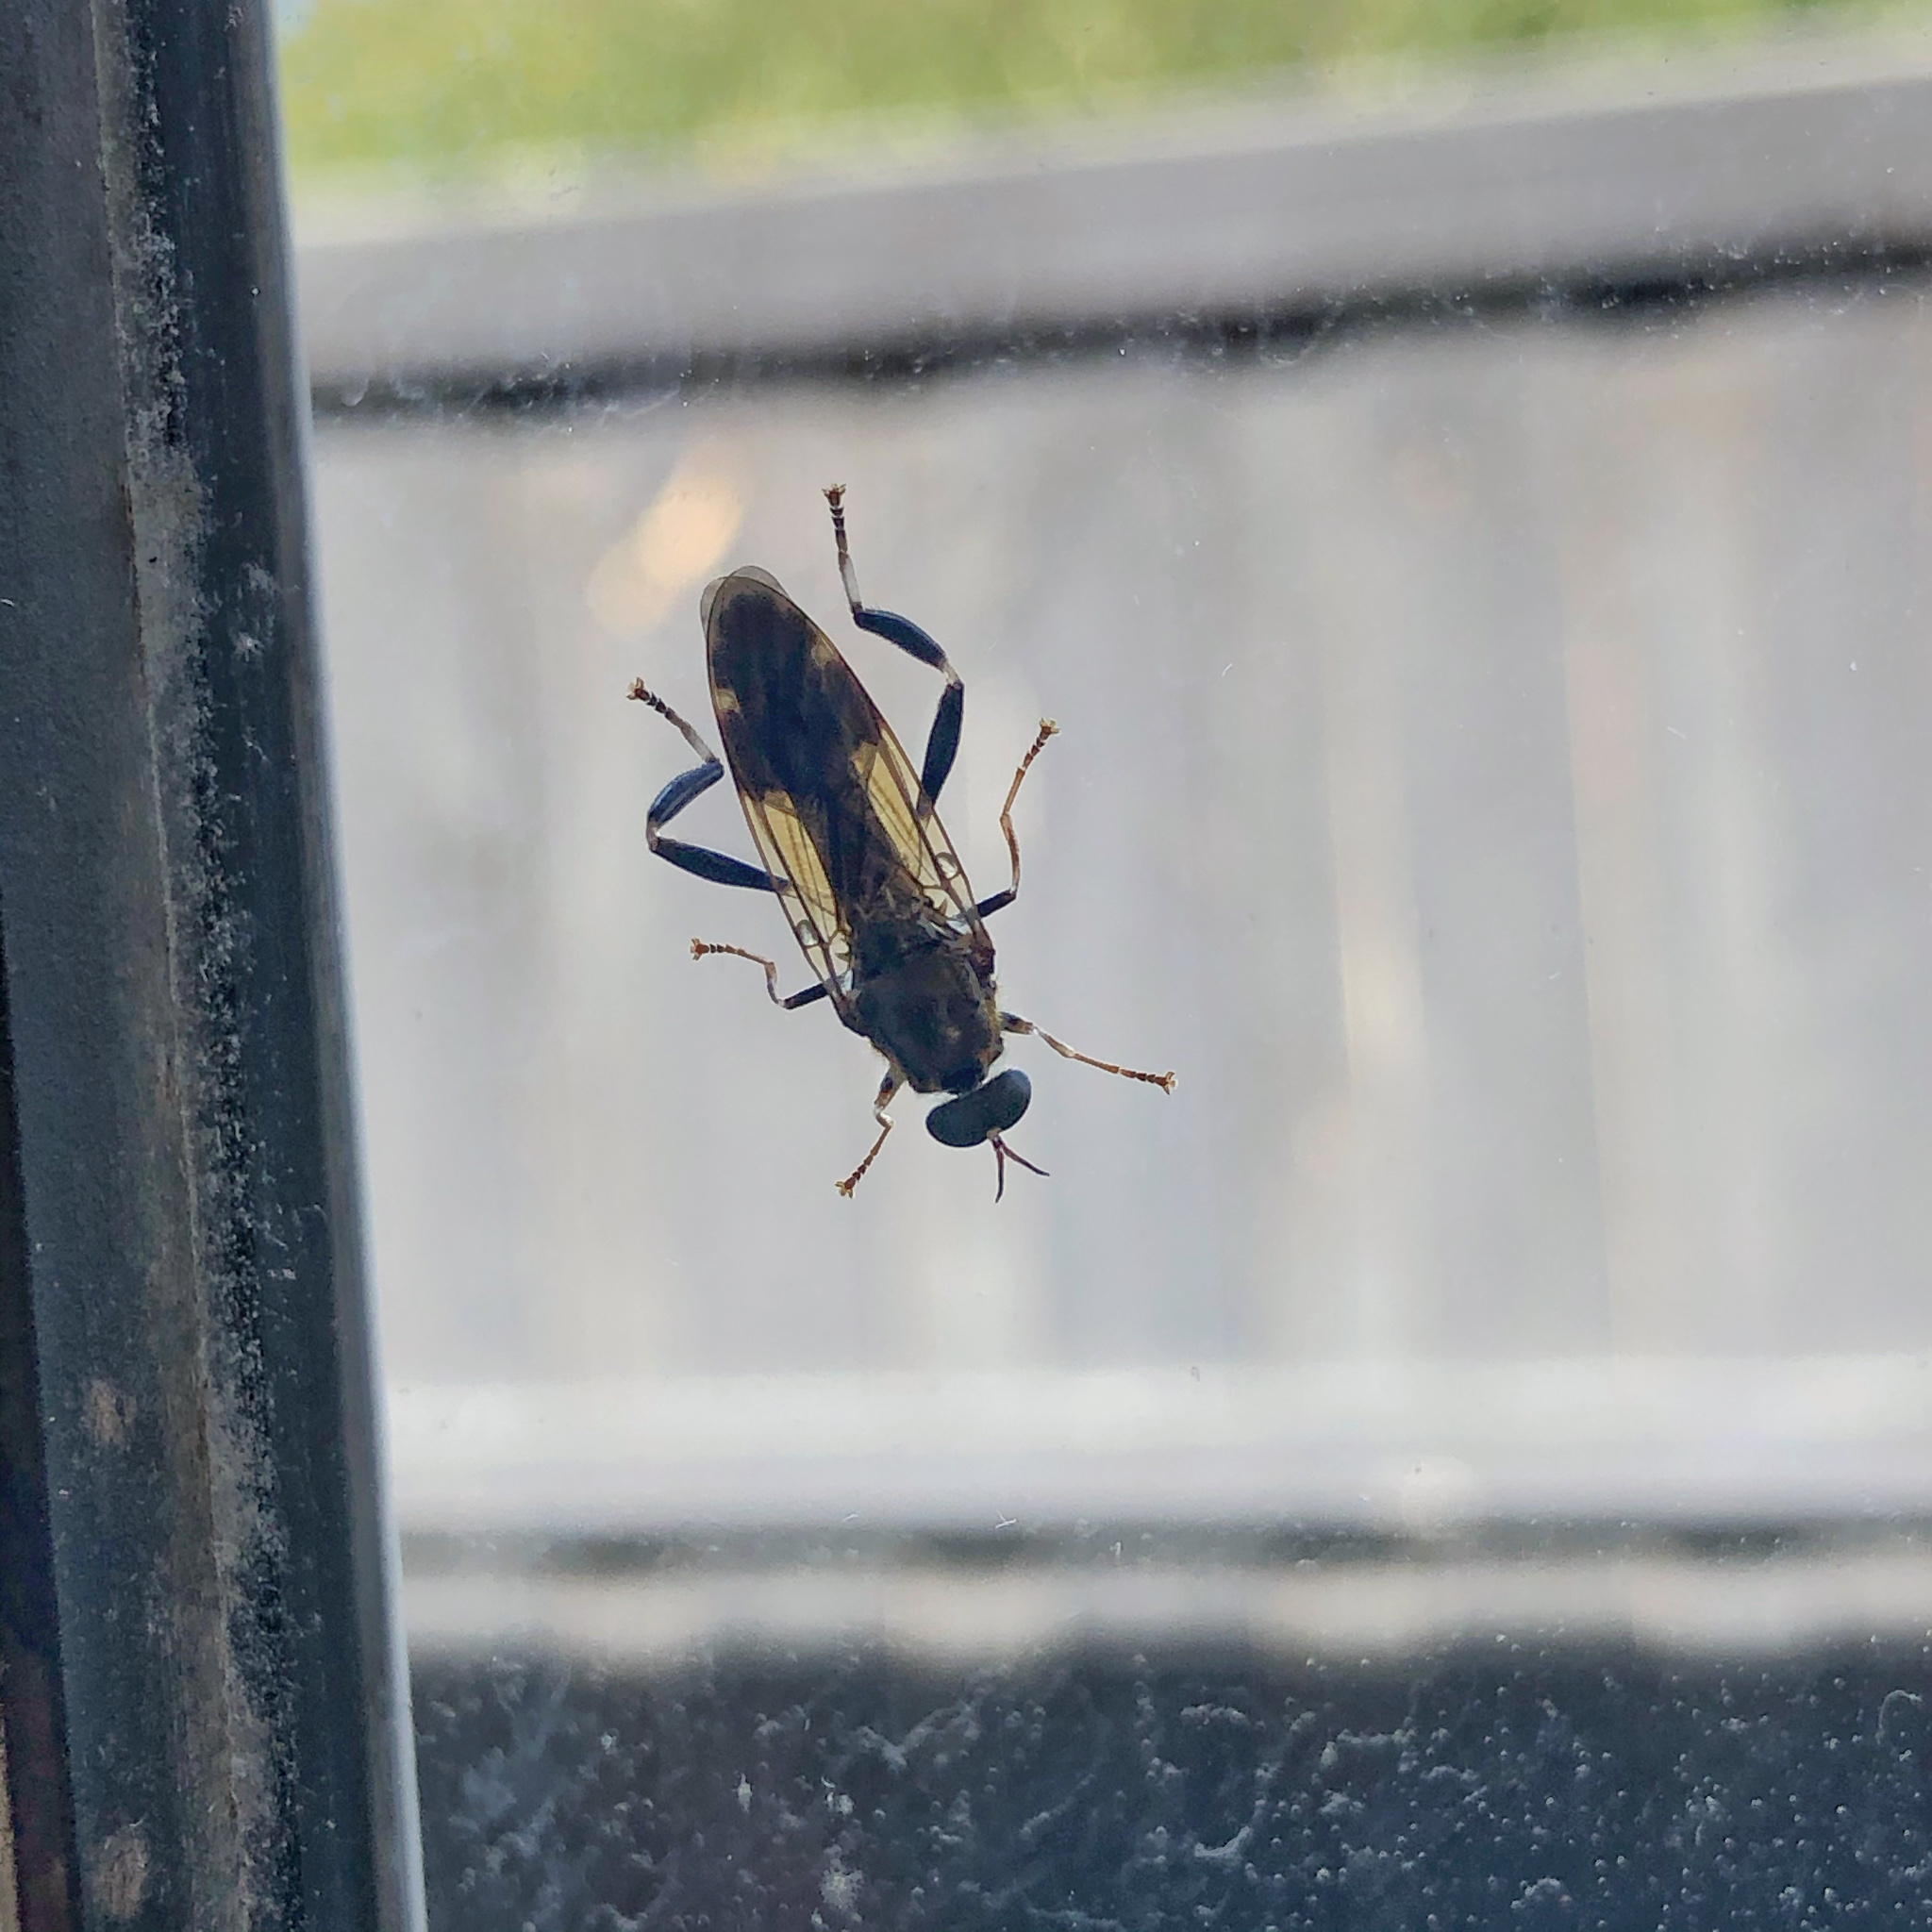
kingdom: Animalia
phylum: Arthropoda
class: Insecta
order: Diptera
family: Stratiomyidae
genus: Exaireta
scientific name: Exaireta spinigera
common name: Blue soldier fly
